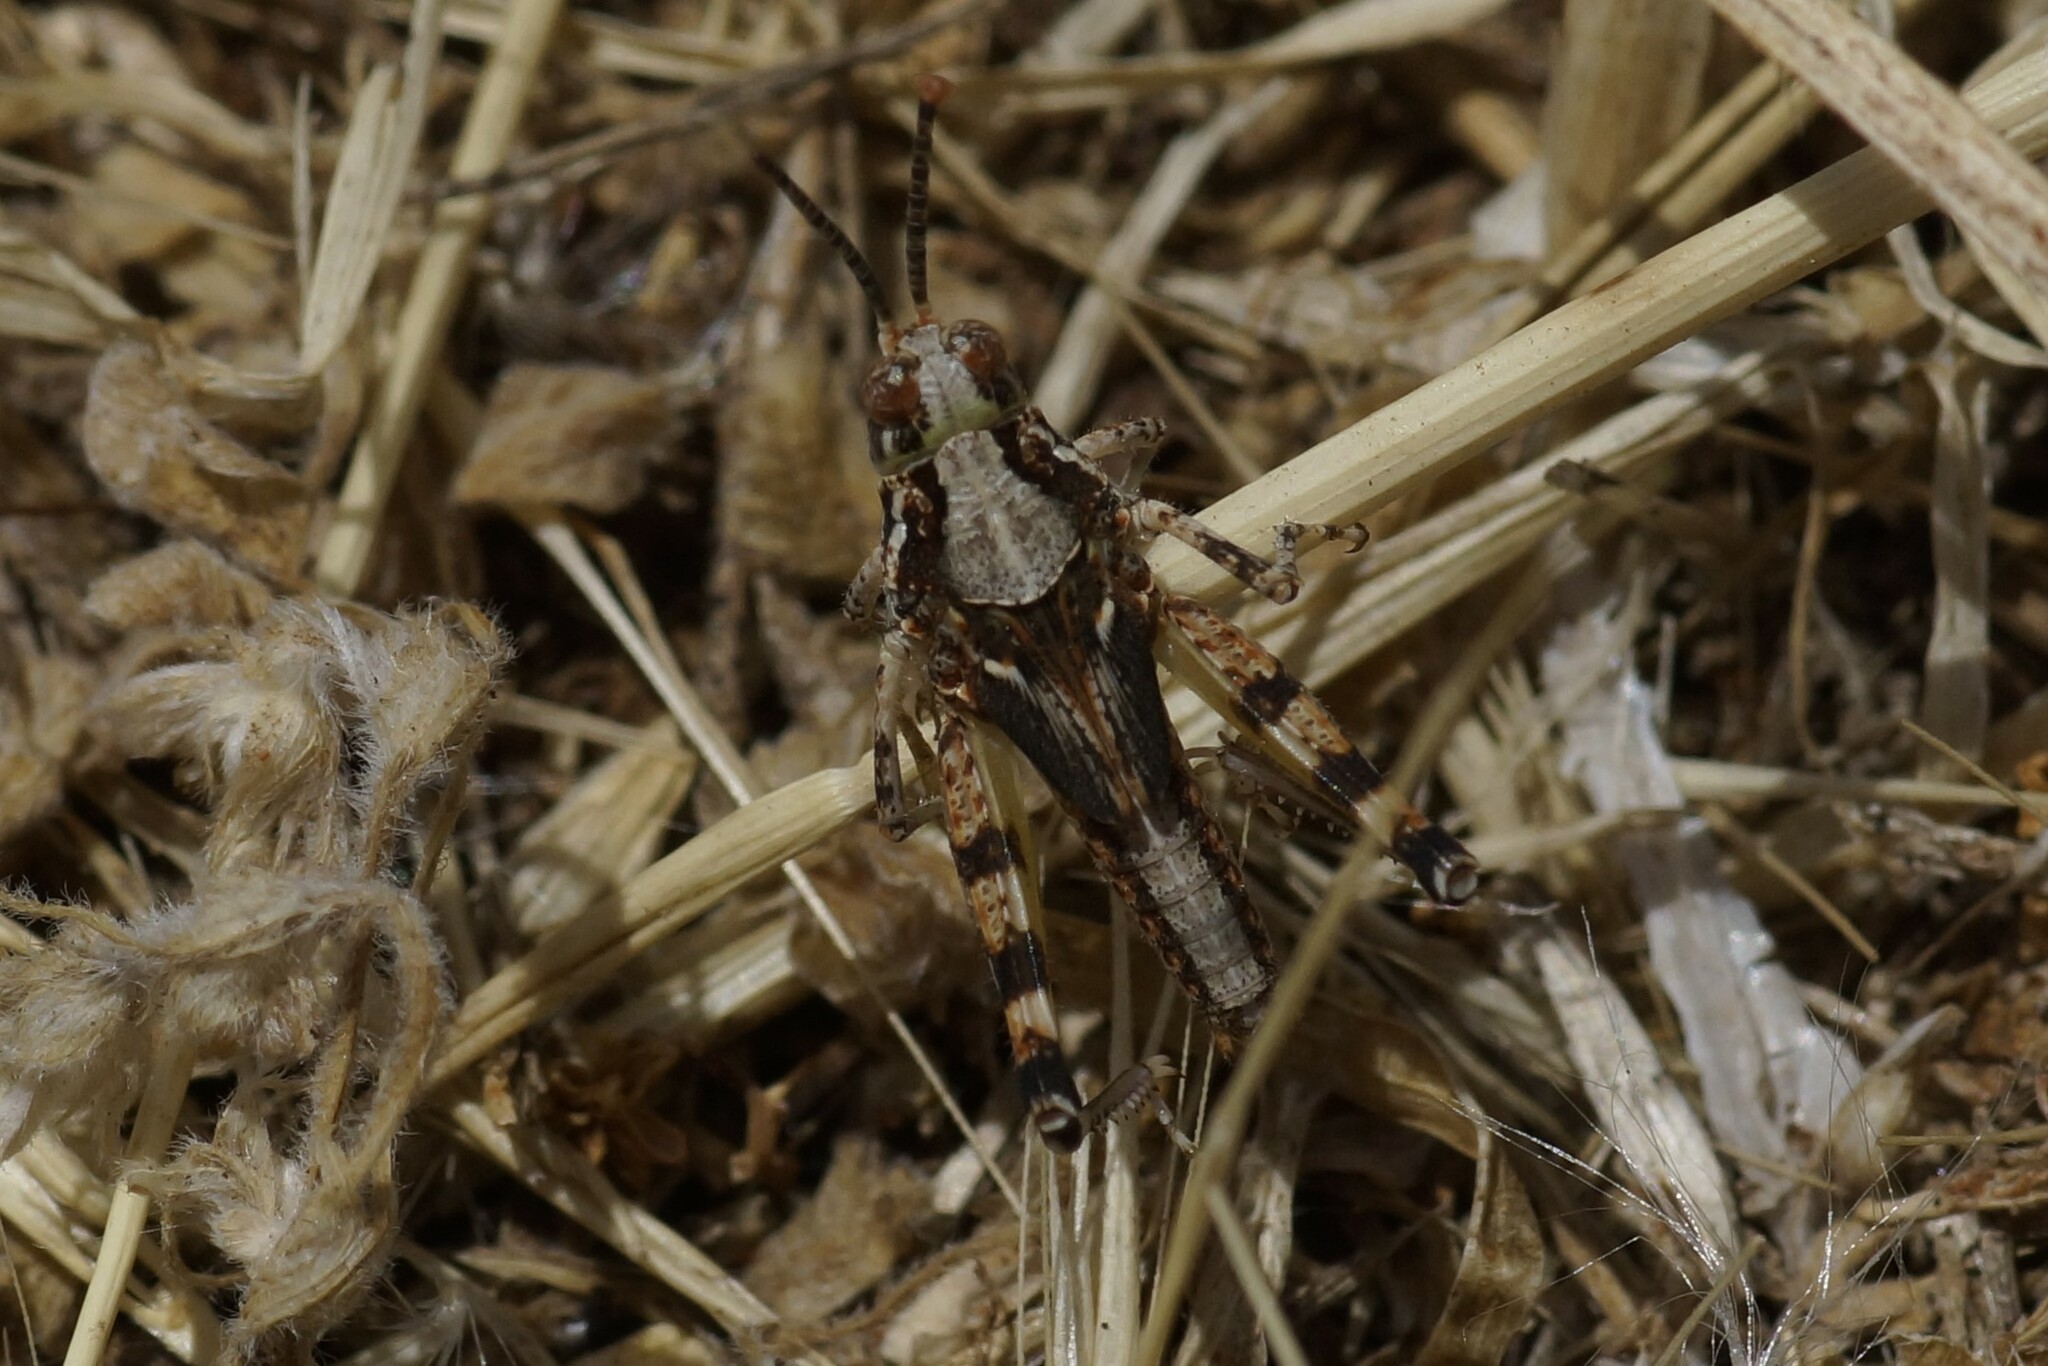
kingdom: Animalia
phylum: Arthropoda
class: Insecta
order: Orthoptera
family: Acrididae
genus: Urnisa
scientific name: Urnisa guttulosa
